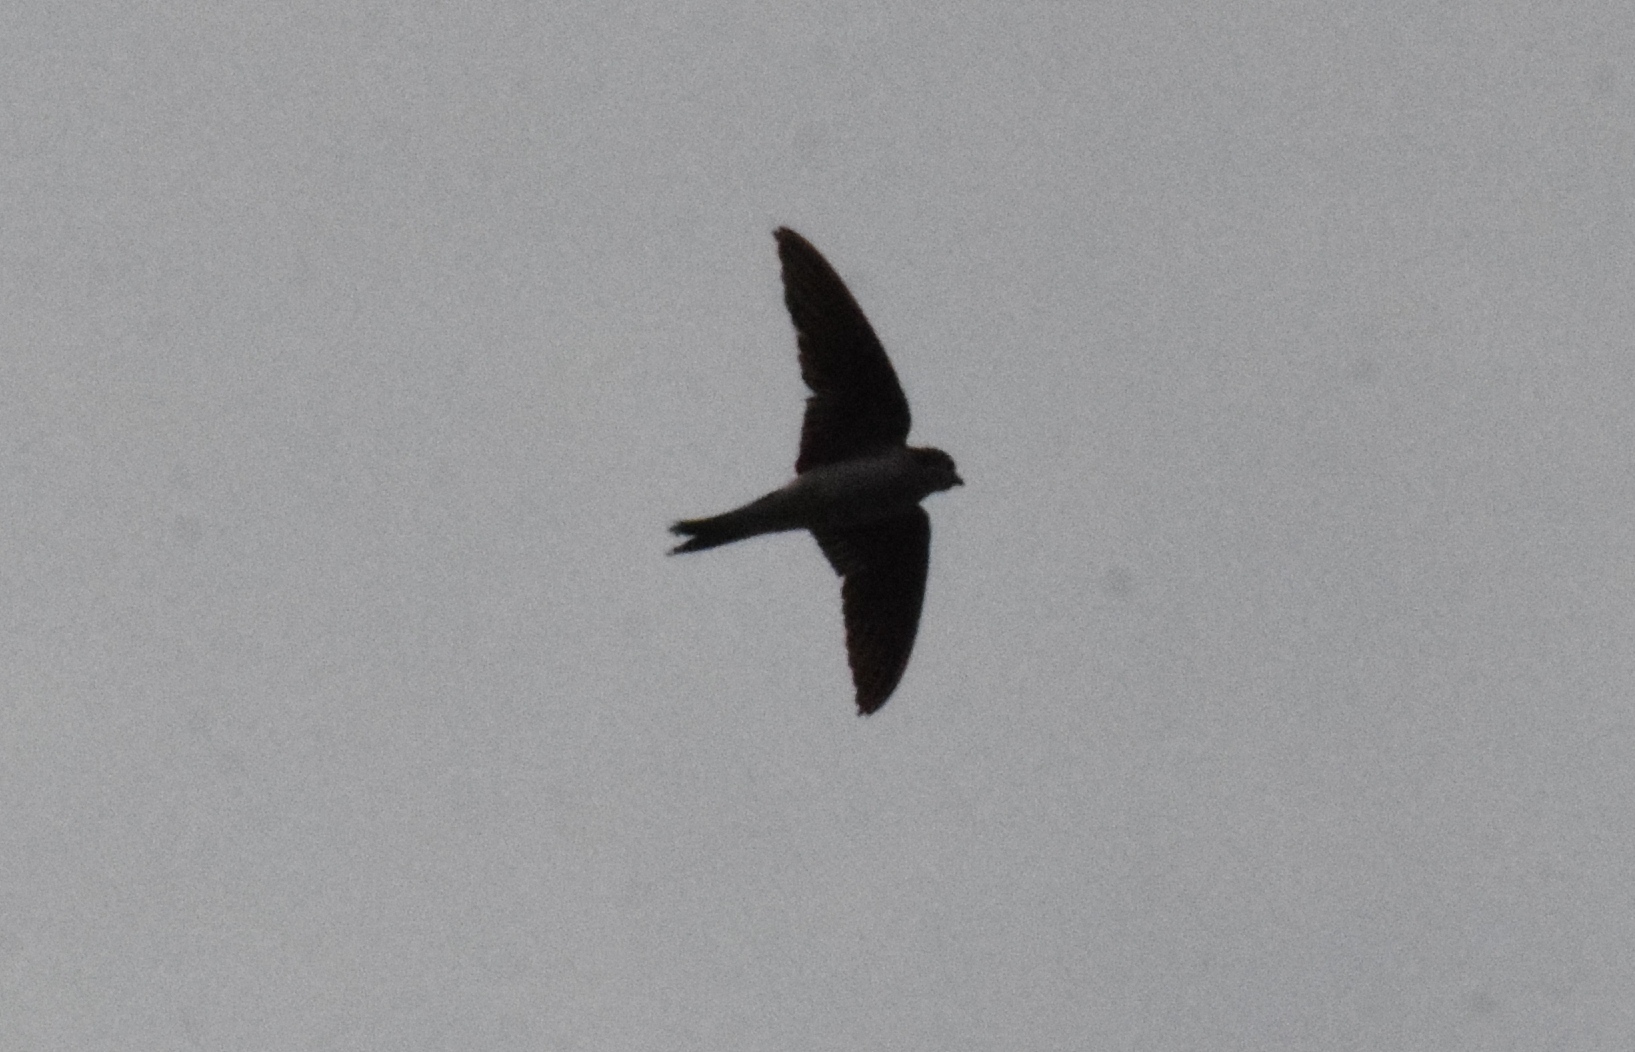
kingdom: Animalia
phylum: Chordata
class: Aves
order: Passeriformes
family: Hirundinidae
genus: Delichon
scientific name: Delichon urbicum
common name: Common house martin
